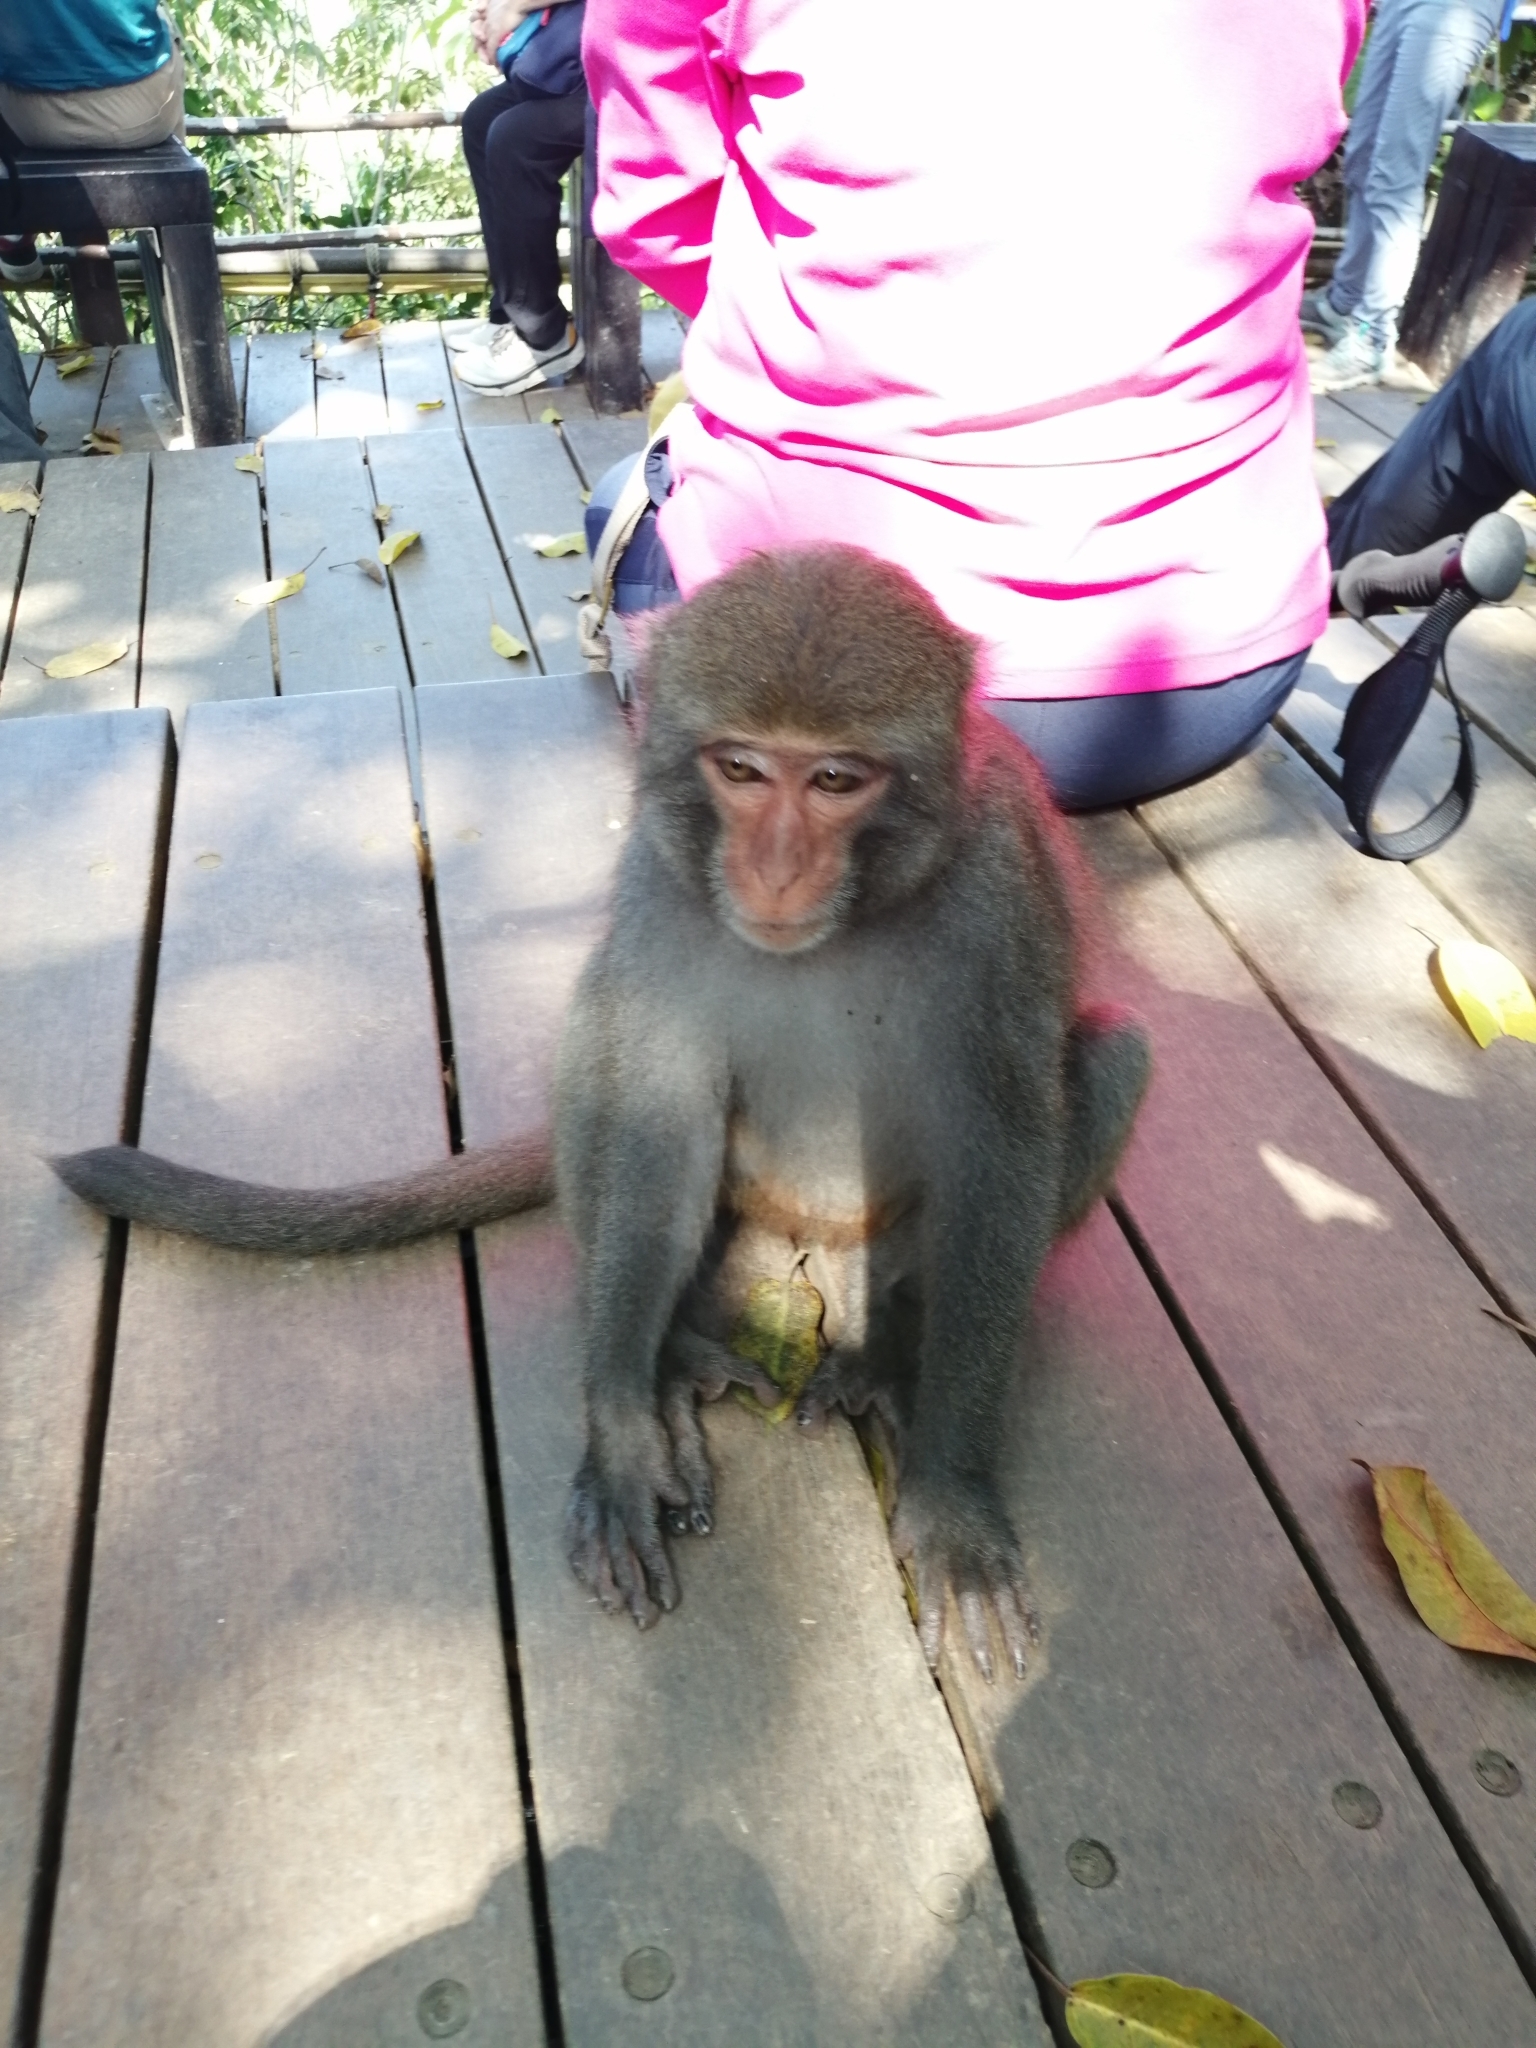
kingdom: Animalia
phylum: Chordata
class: Mammalia
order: Primates
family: Cercopithecidae
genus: Macaca
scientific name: Macaca cyclopis
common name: Formosan rock macaque
